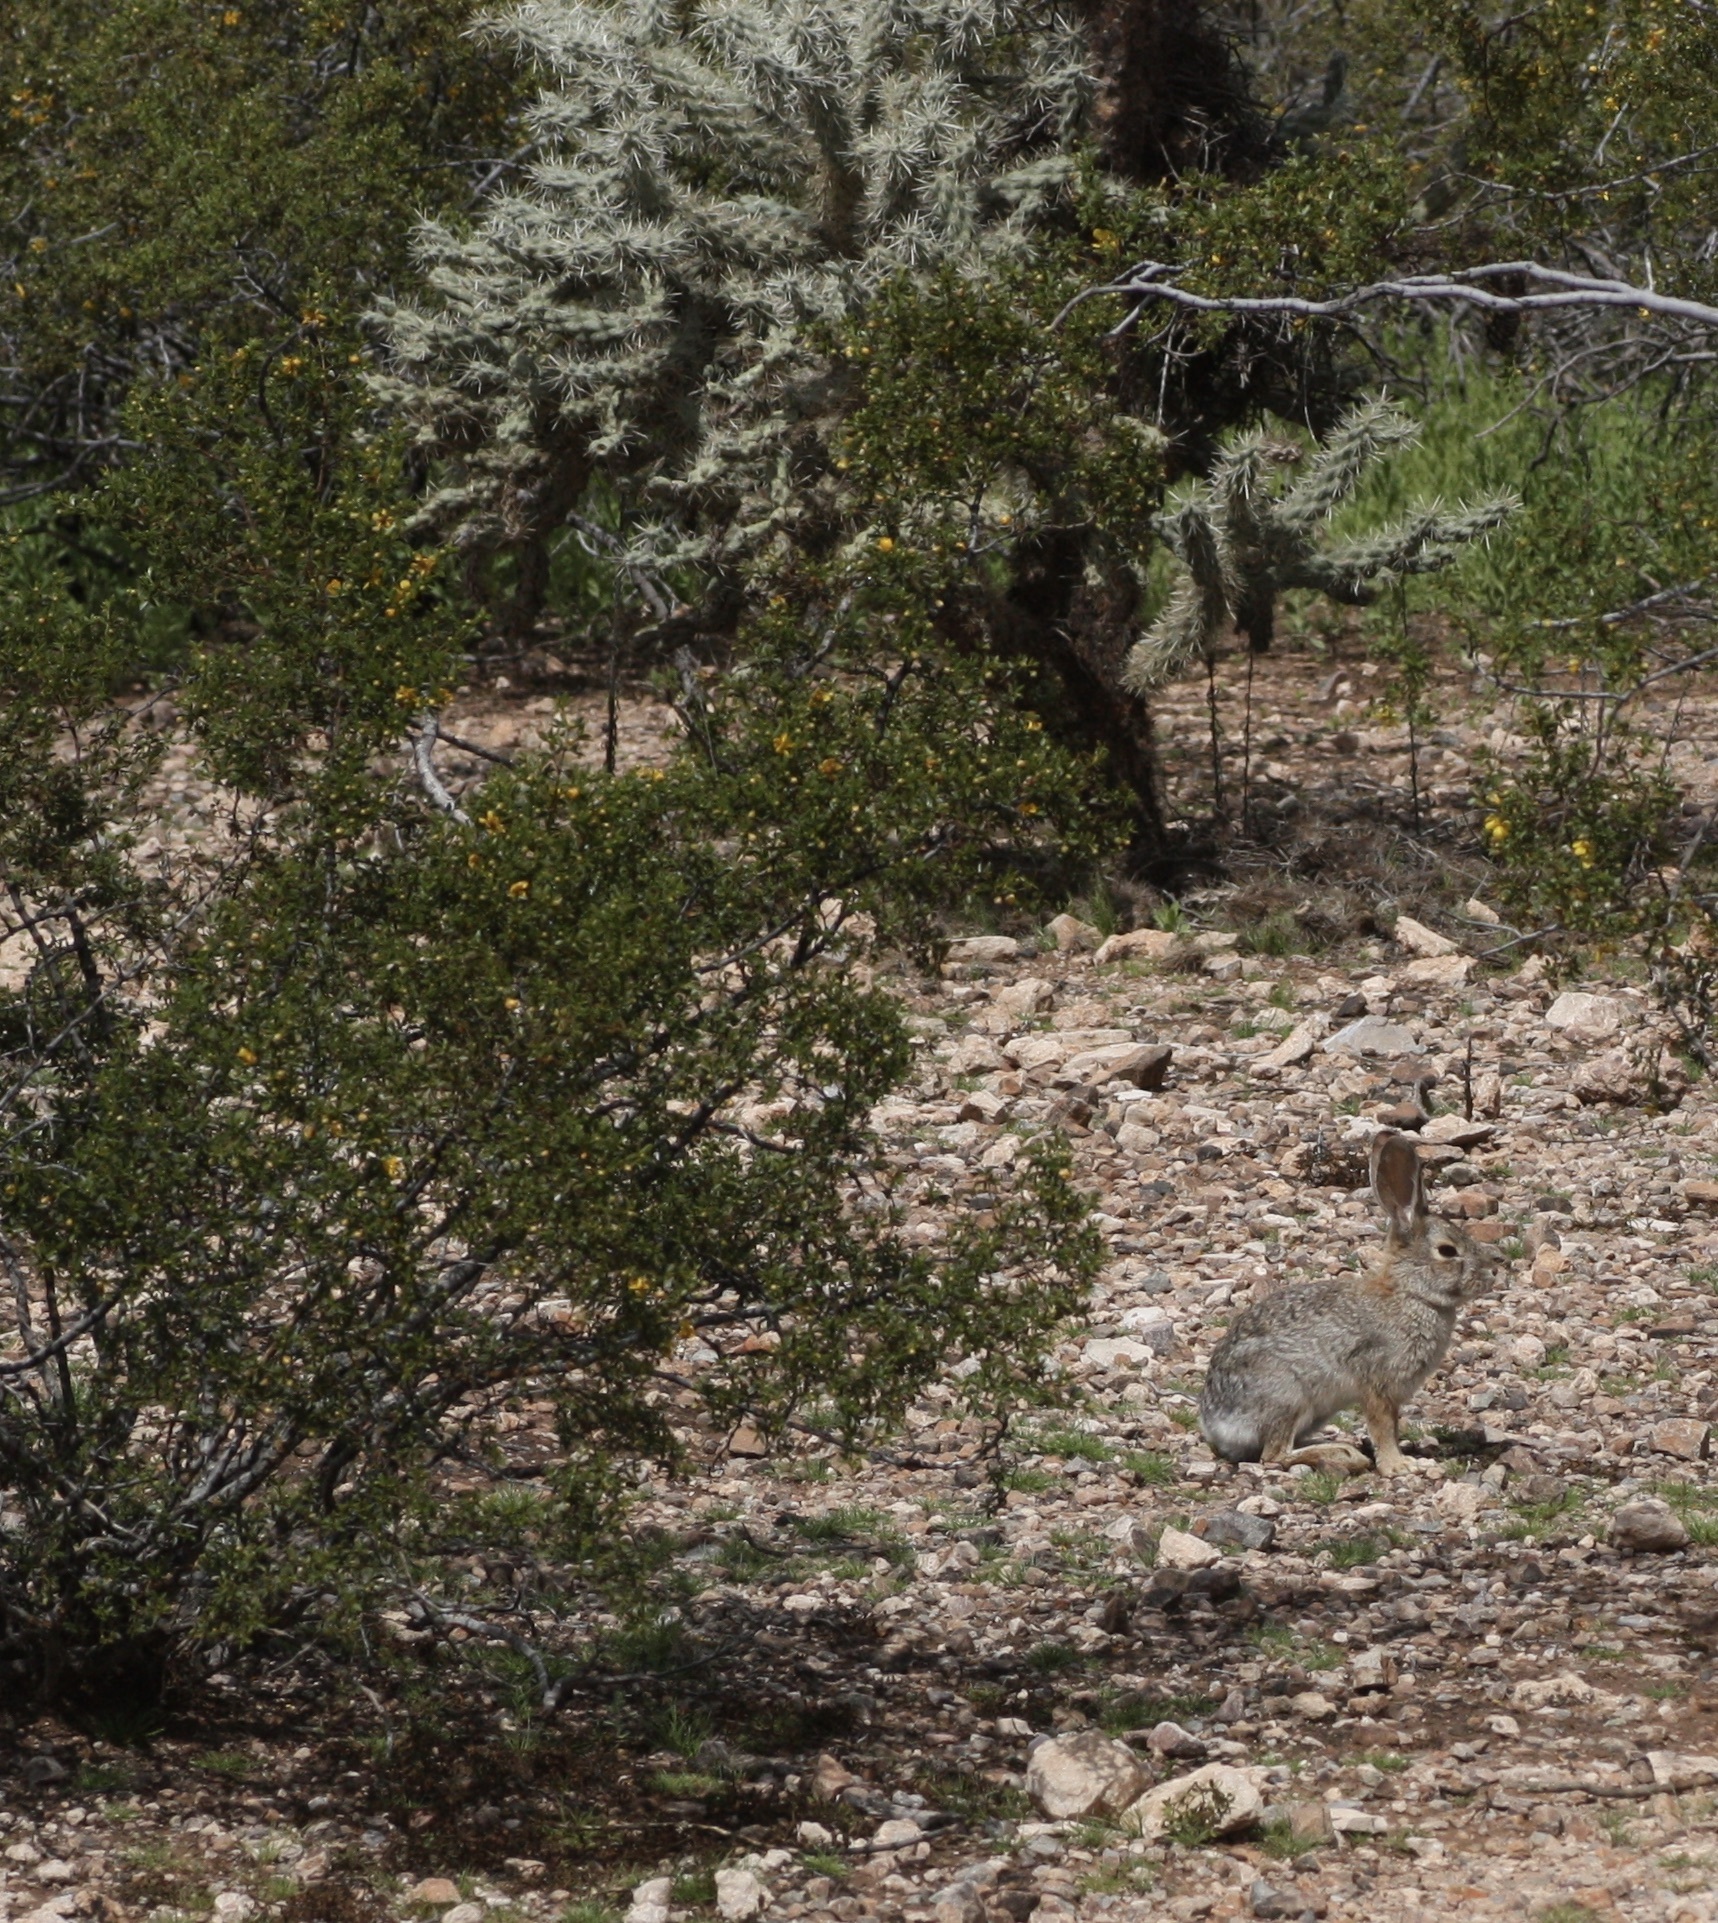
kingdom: Animalia
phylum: Chordata
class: Mammalia
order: Lagomorpha
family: Leporidae
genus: Sylvilagus
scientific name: Sylvilagus audubonii
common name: Desert cottontail
